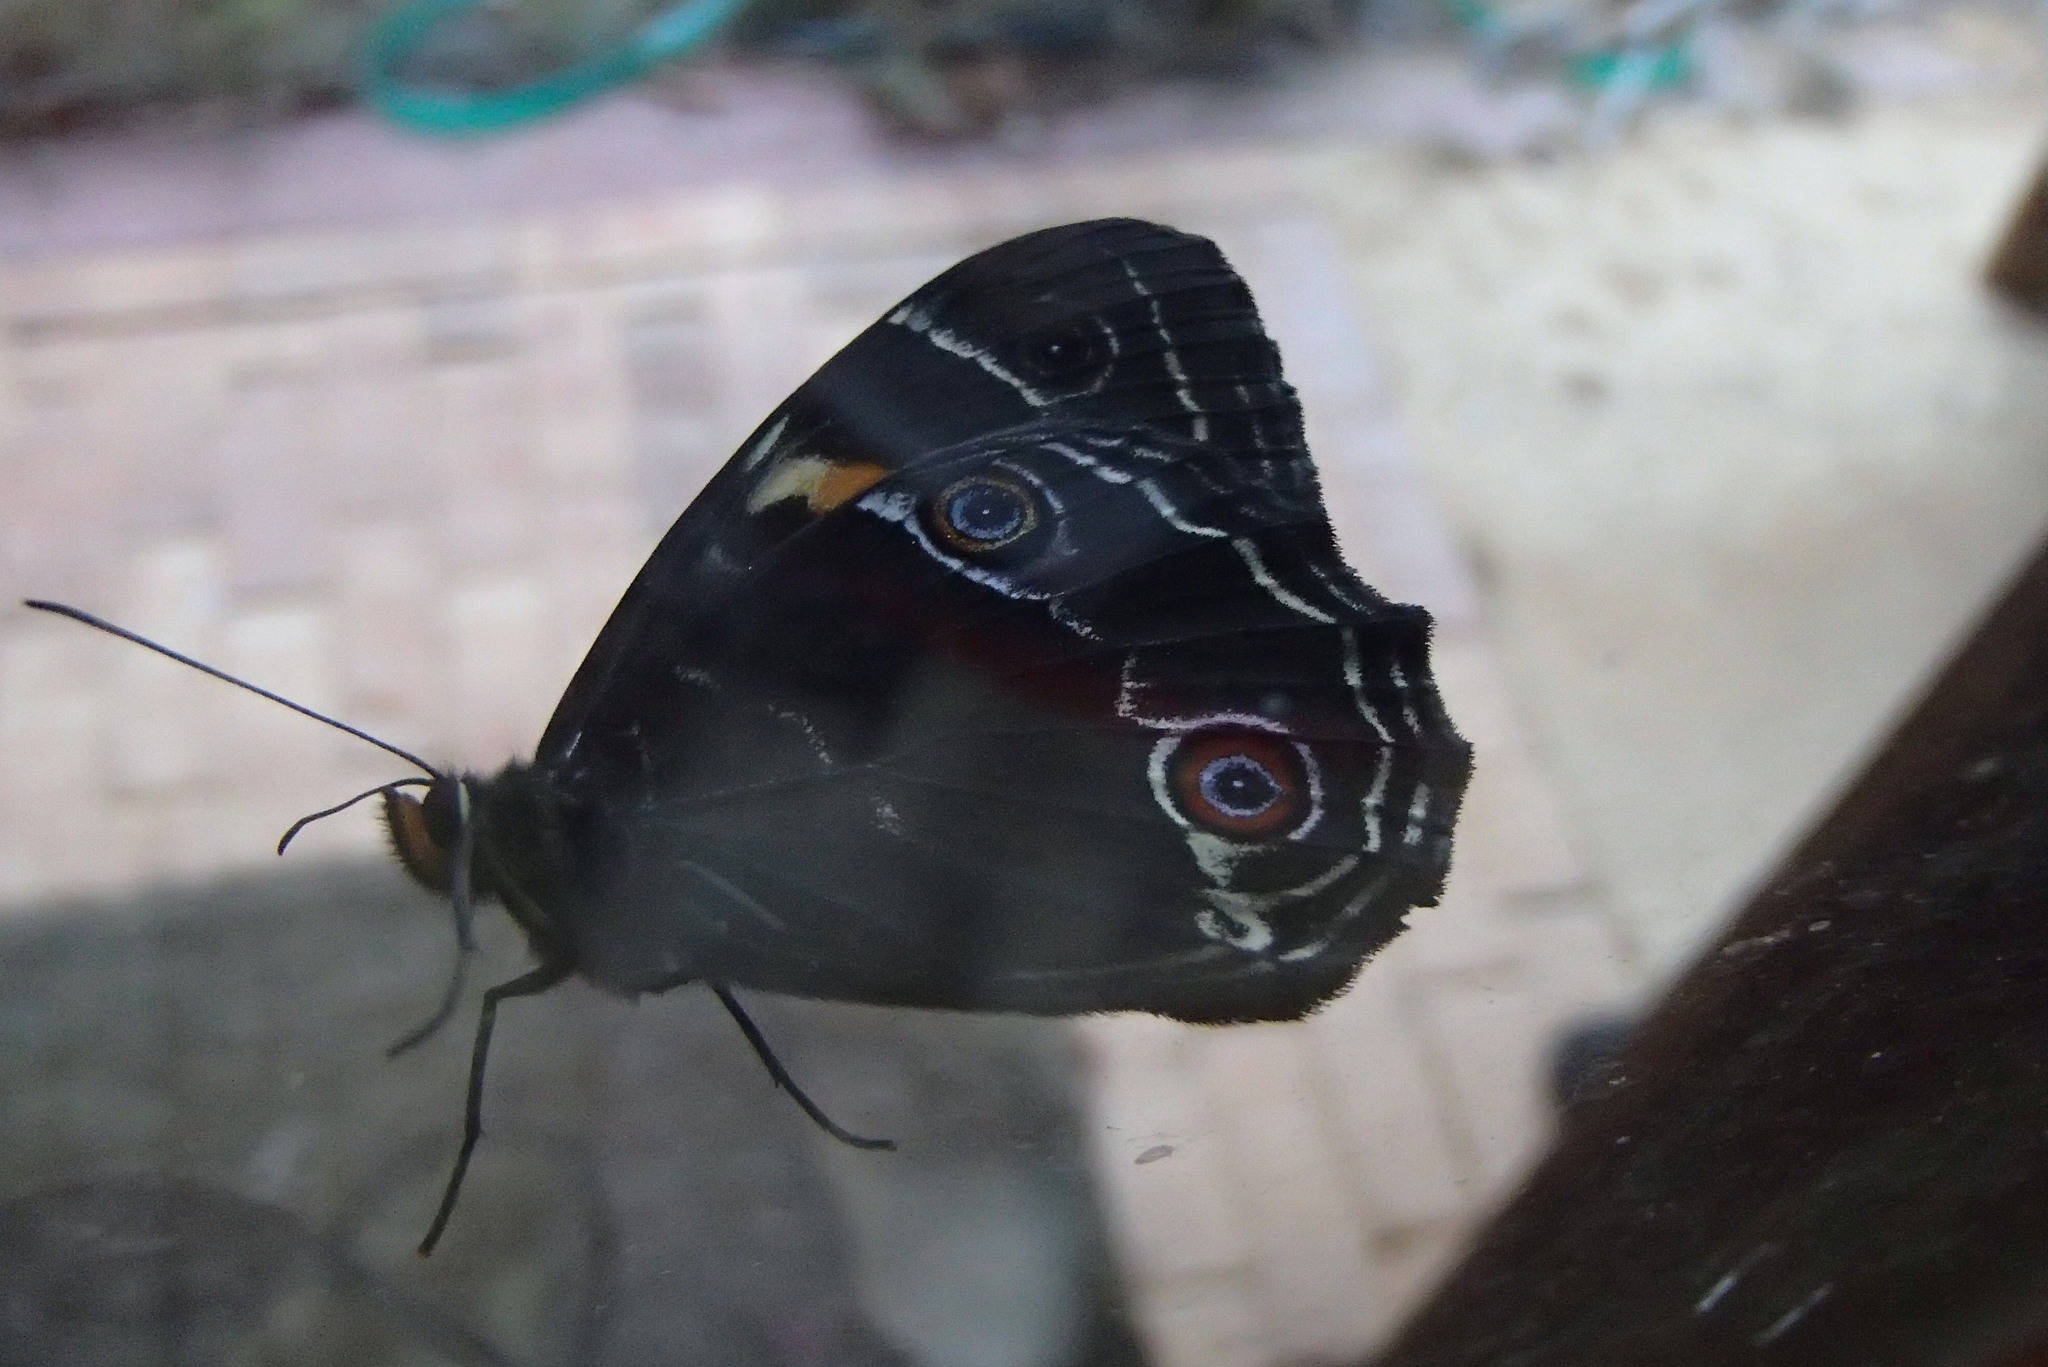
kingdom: Animalia
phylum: Arthropoda
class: Insecta
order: Lepidoptera
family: Nymphalidae
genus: Tisiphone
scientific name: Tisiphone abeona
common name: Swordgrass brown
